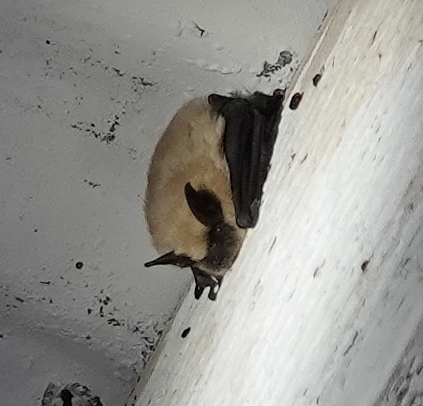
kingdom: Animalia
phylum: Chordata
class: Mammalia
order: Chiroptera
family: Vespertilionidae
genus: Myotis
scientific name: Myotis ciliolabrum
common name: Western small-footed myotis
